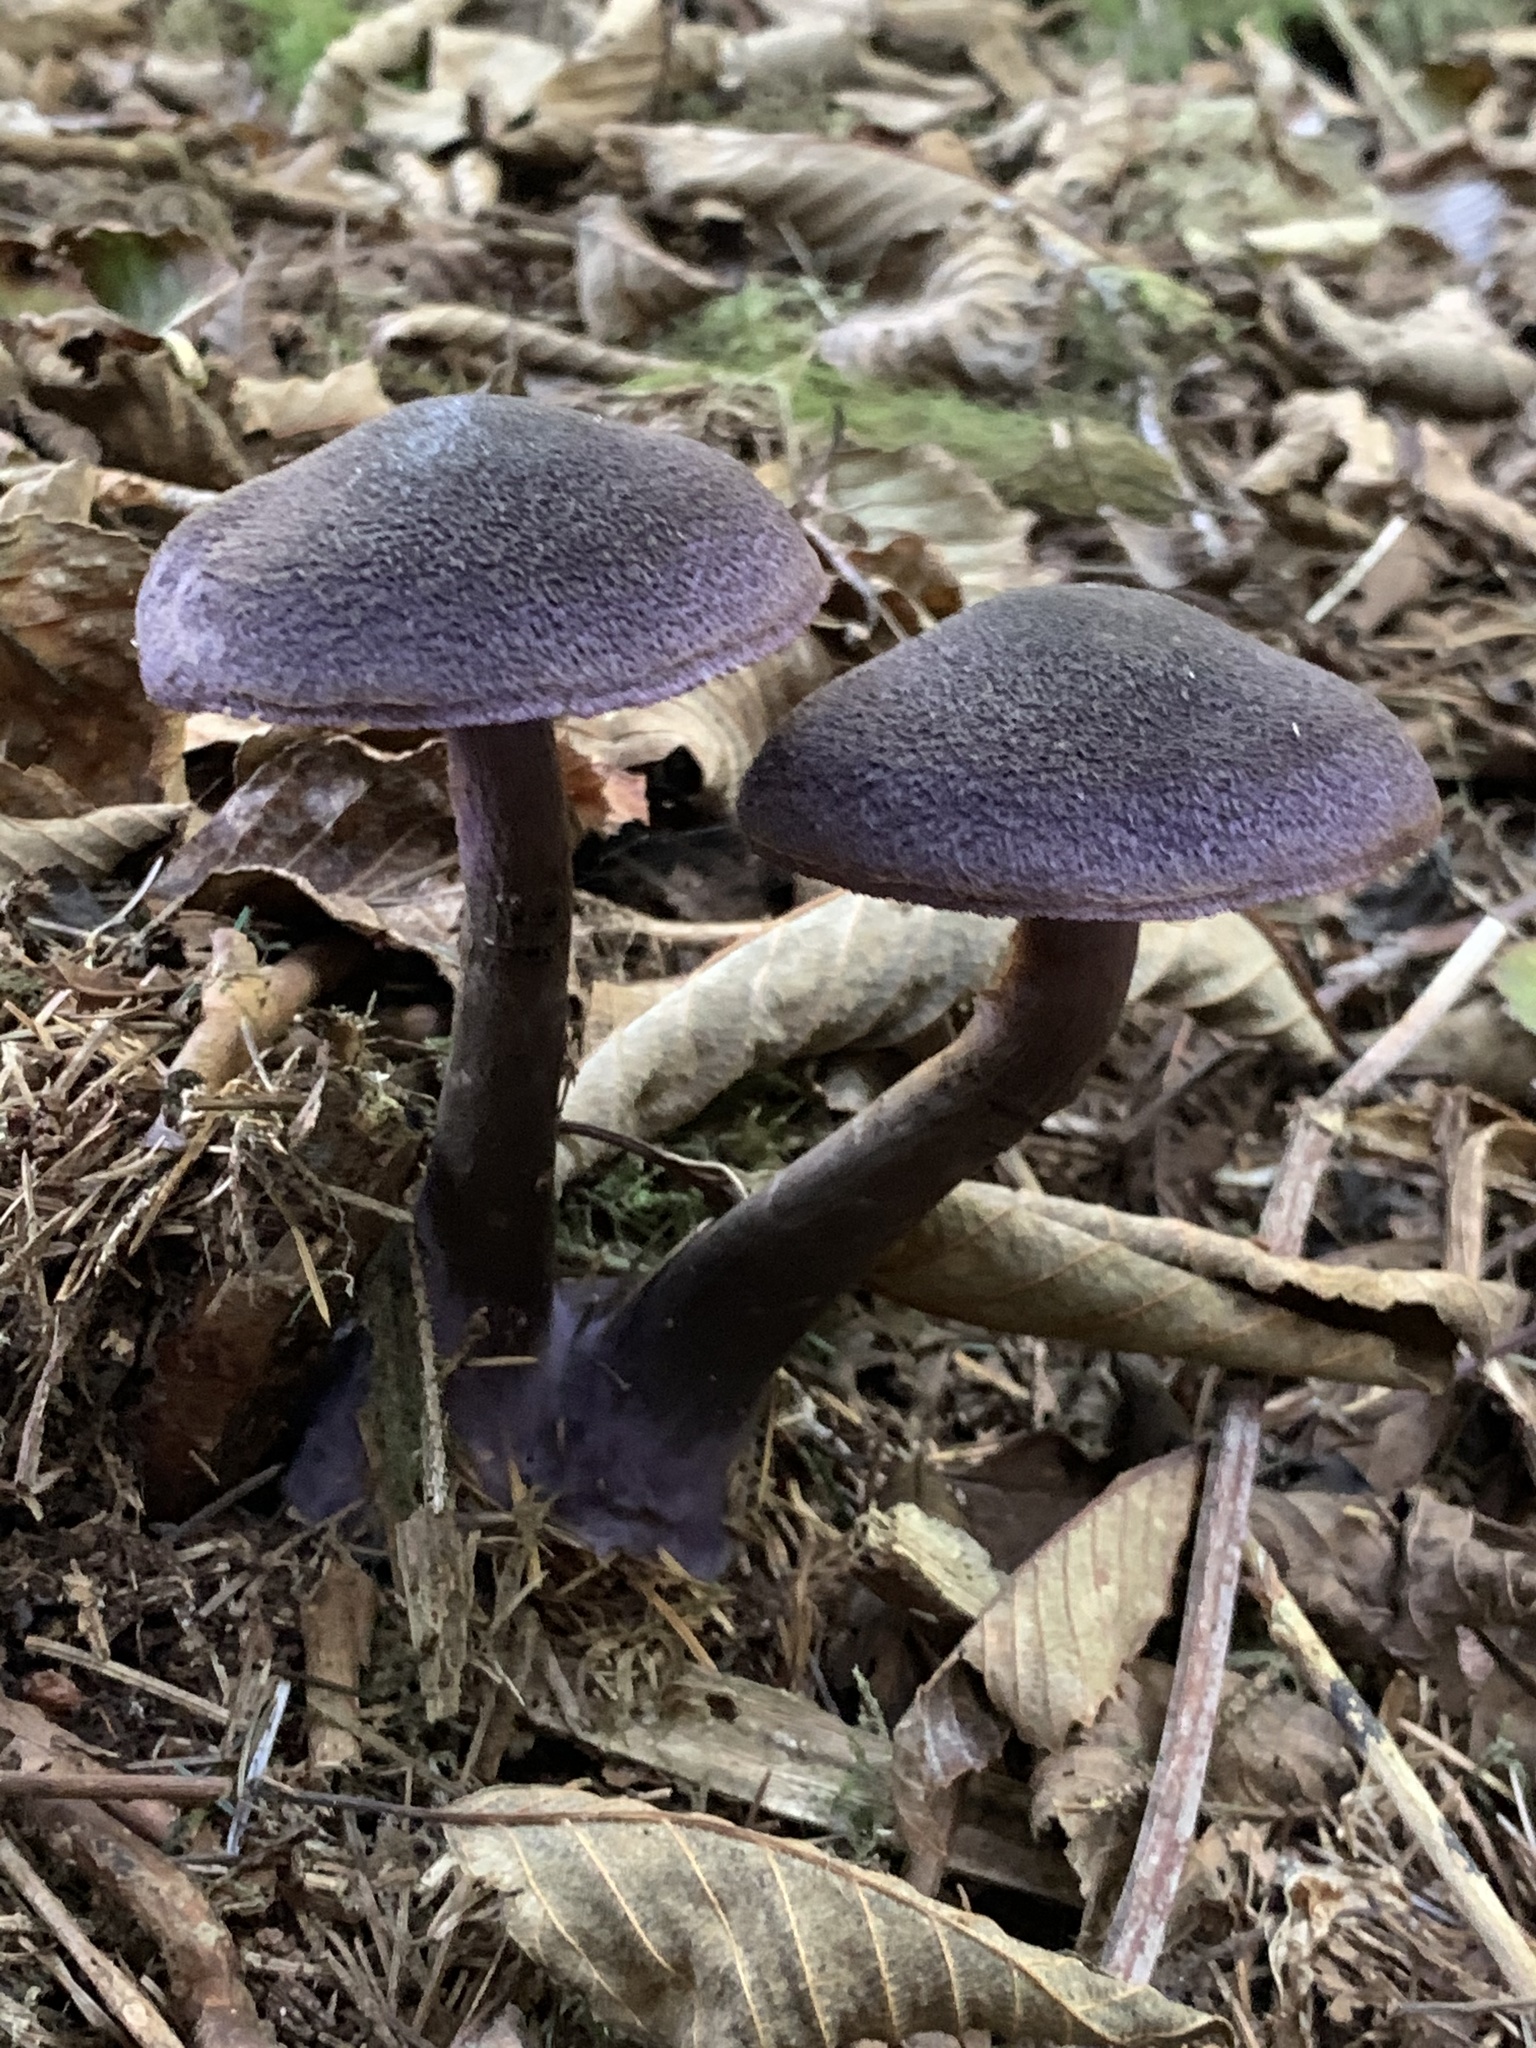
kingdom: Fungi
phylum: Basidiomycota
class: Agaricomycetes
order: Agaricales
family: Cortinariaceae
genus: Cortinarius
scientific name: Cortinarius violaceus
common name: Violet webcap
